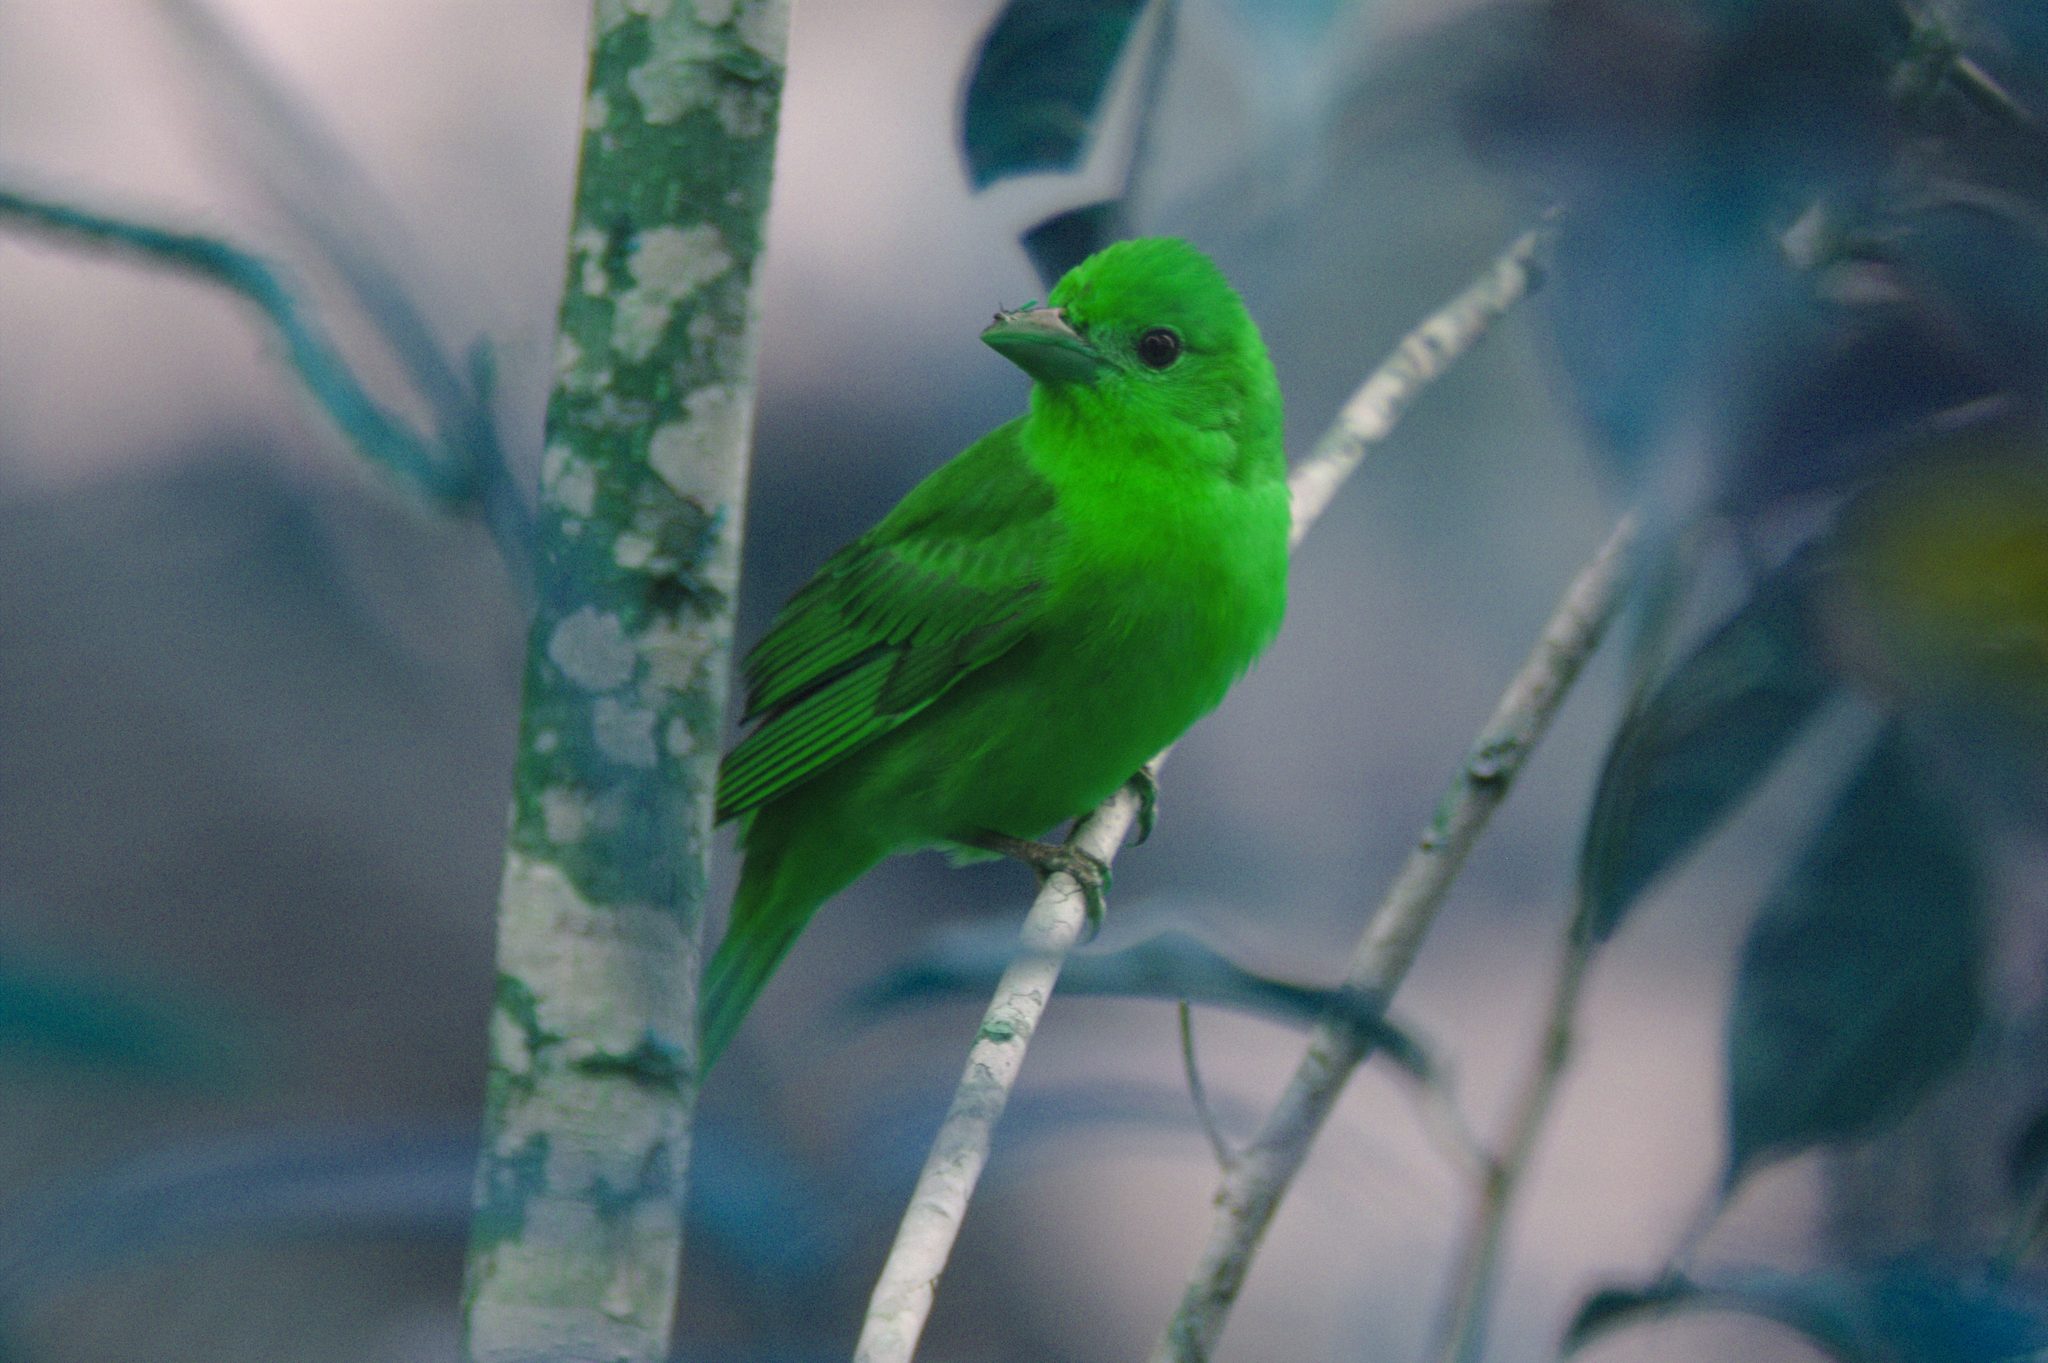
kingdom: Animalia
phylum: Chordata
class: Aves
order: Passeriformes
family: Cardinalidae
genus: Piranga
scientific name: Piranga rubra
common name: Summer tanager
